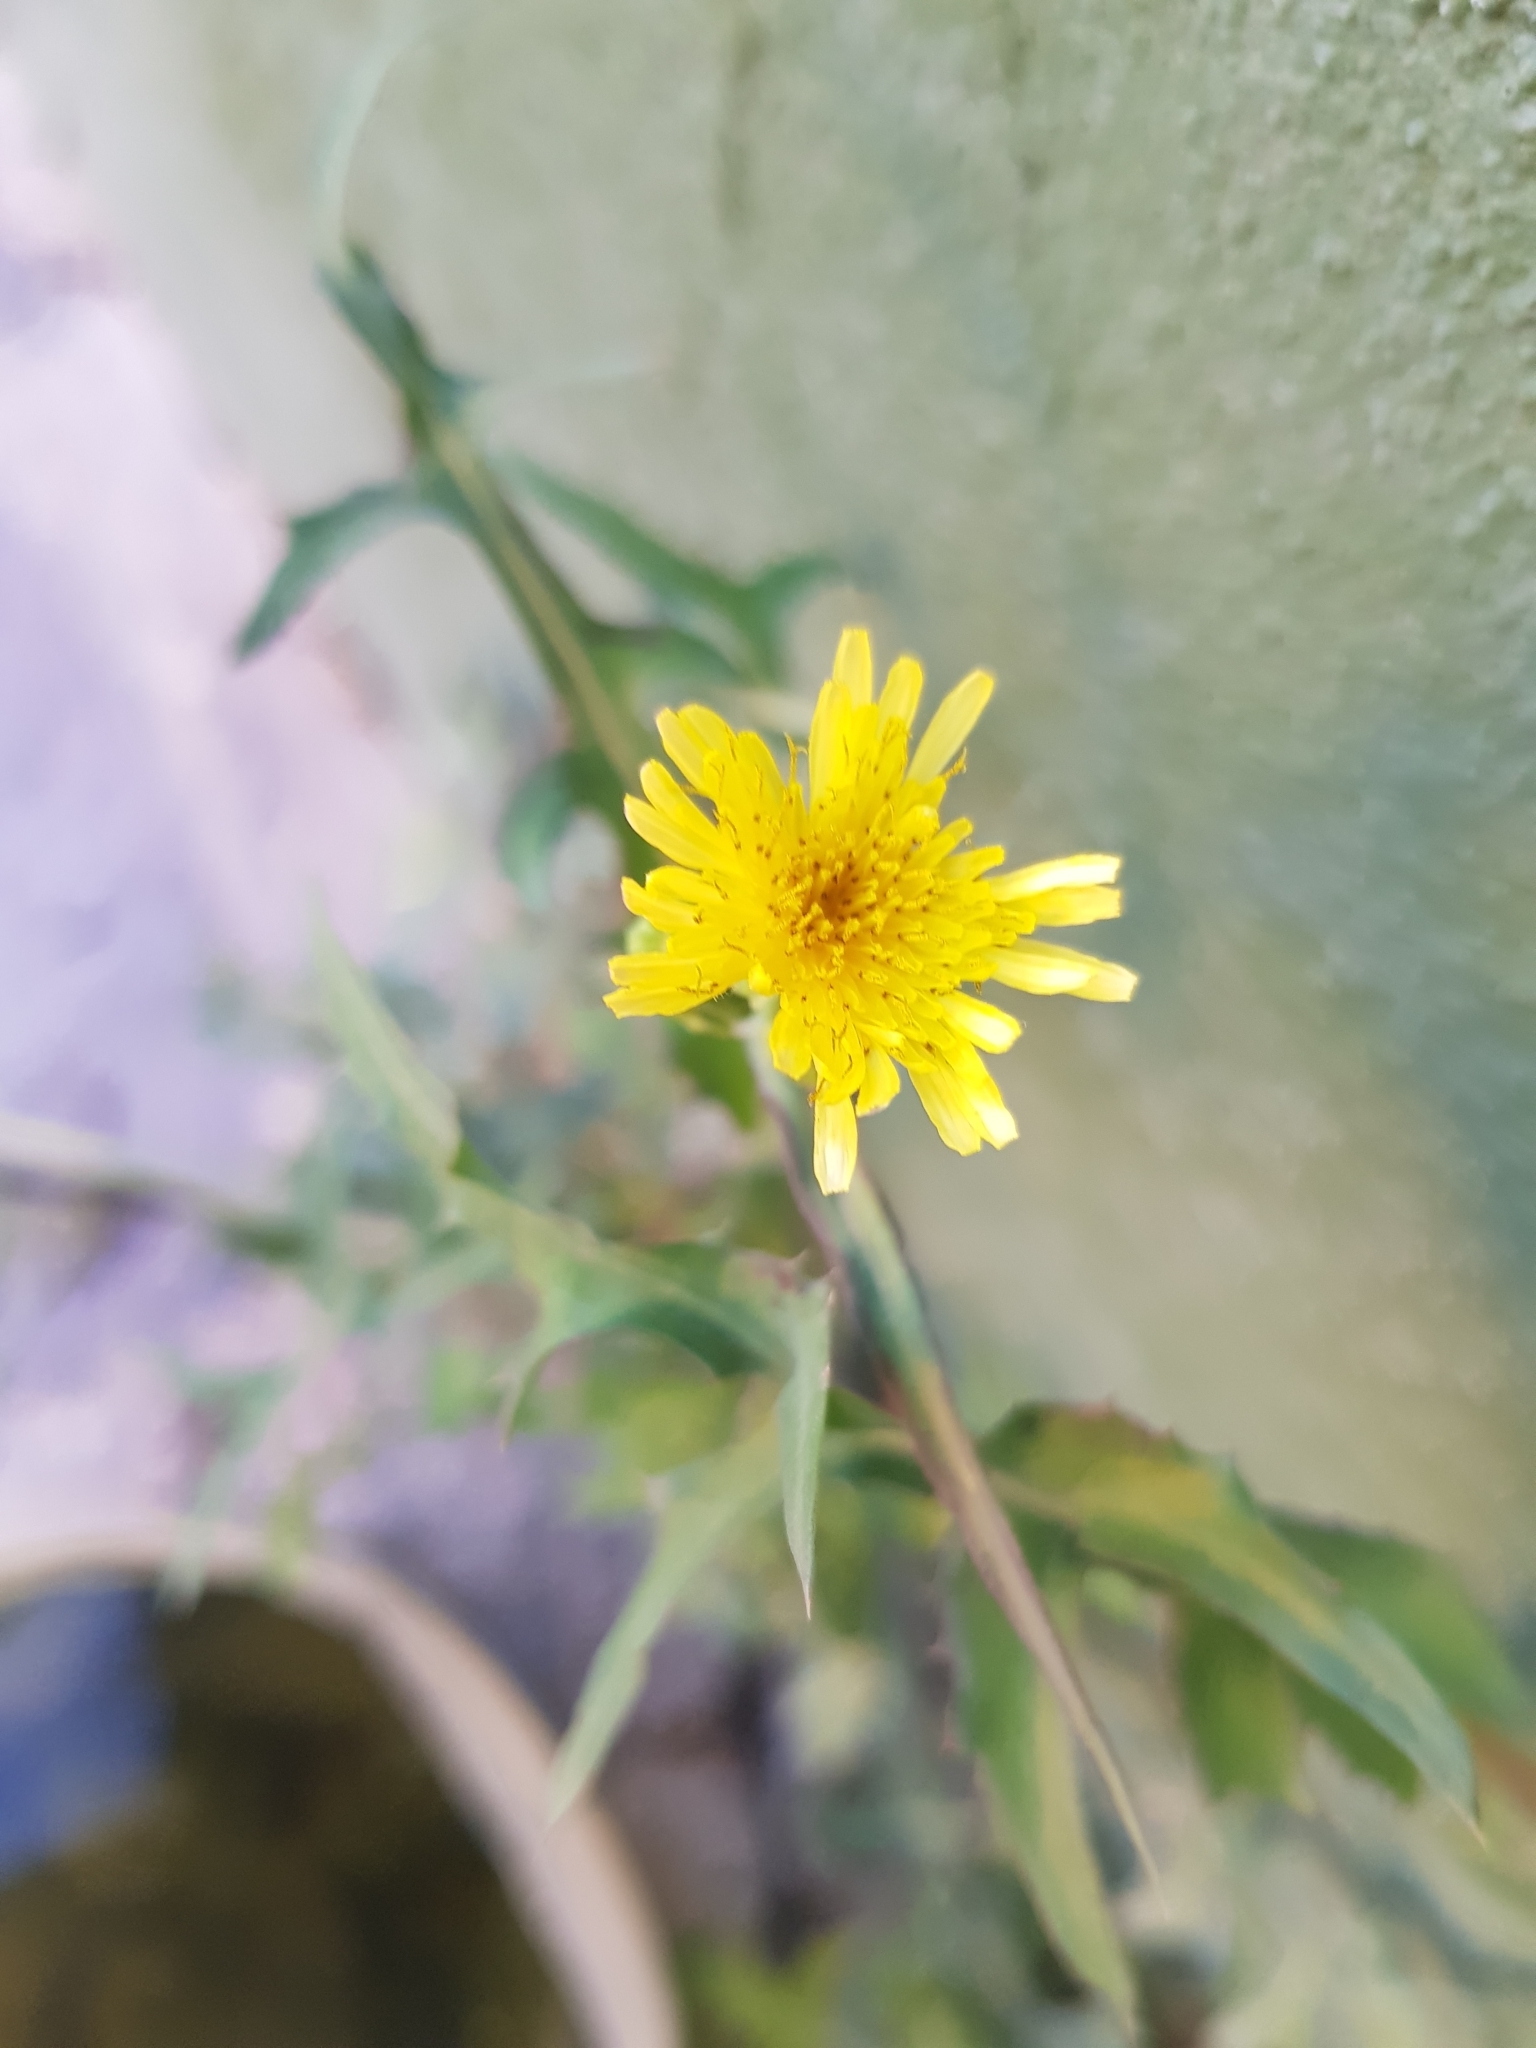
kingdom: Plantae
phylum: Tracheophyta
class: Magnoliopsida
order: Asterales
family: Asteraceae
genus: Sonchus
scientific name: Sonchus asper
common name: Prickly sow-thistle
